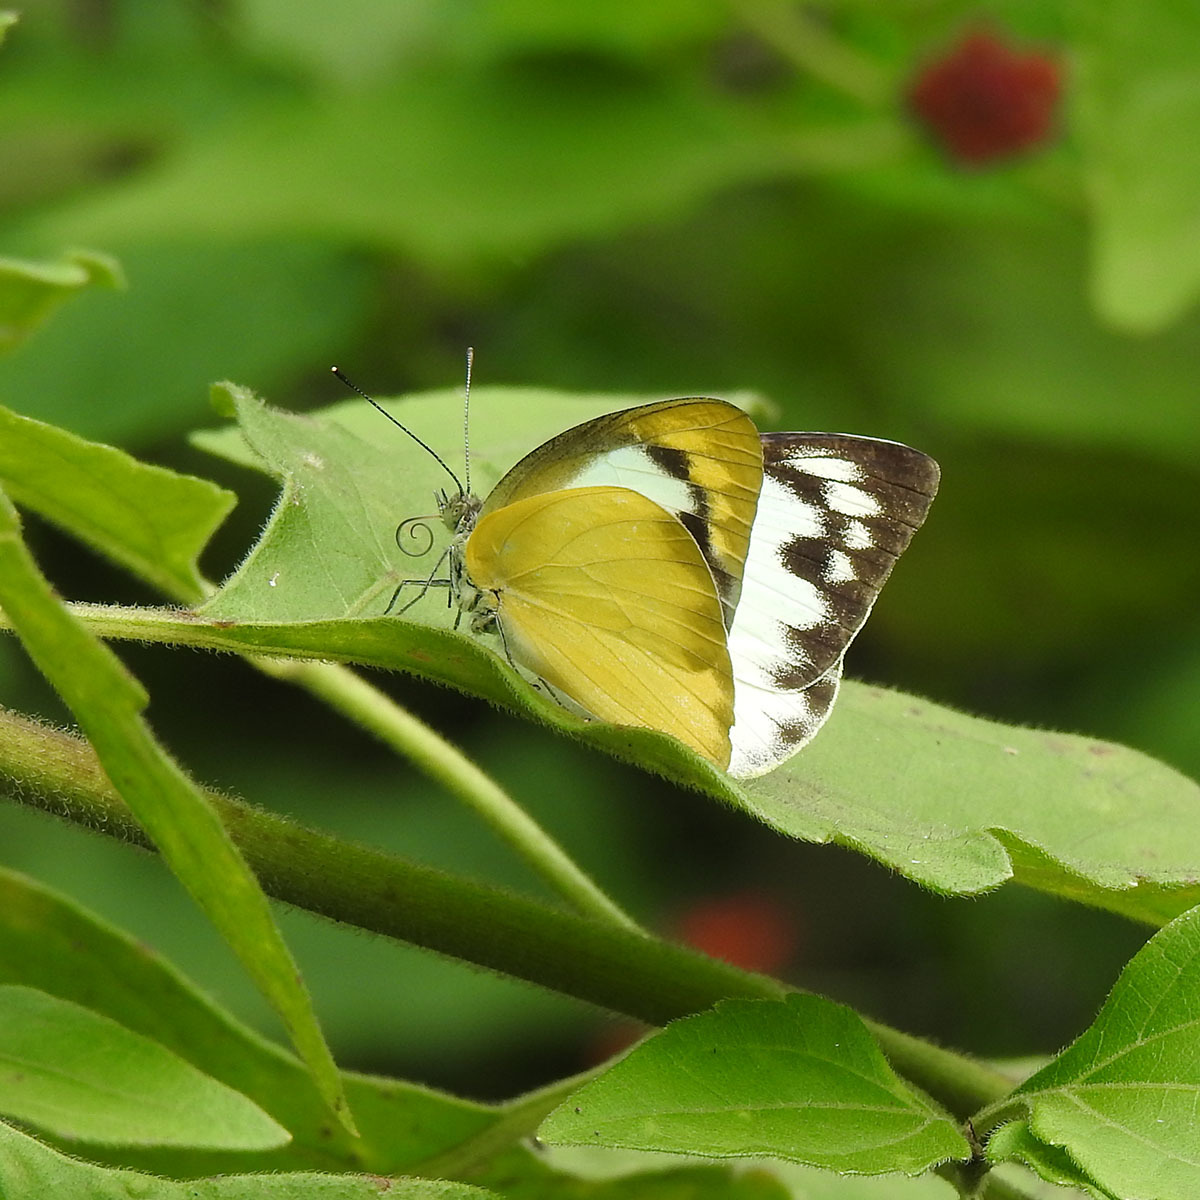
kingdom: Animalia
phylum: Arthropoda
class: Insecta
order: Lepidoptera
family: Pieridae
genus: Appias
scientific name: Appias albina
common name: Common albatross
